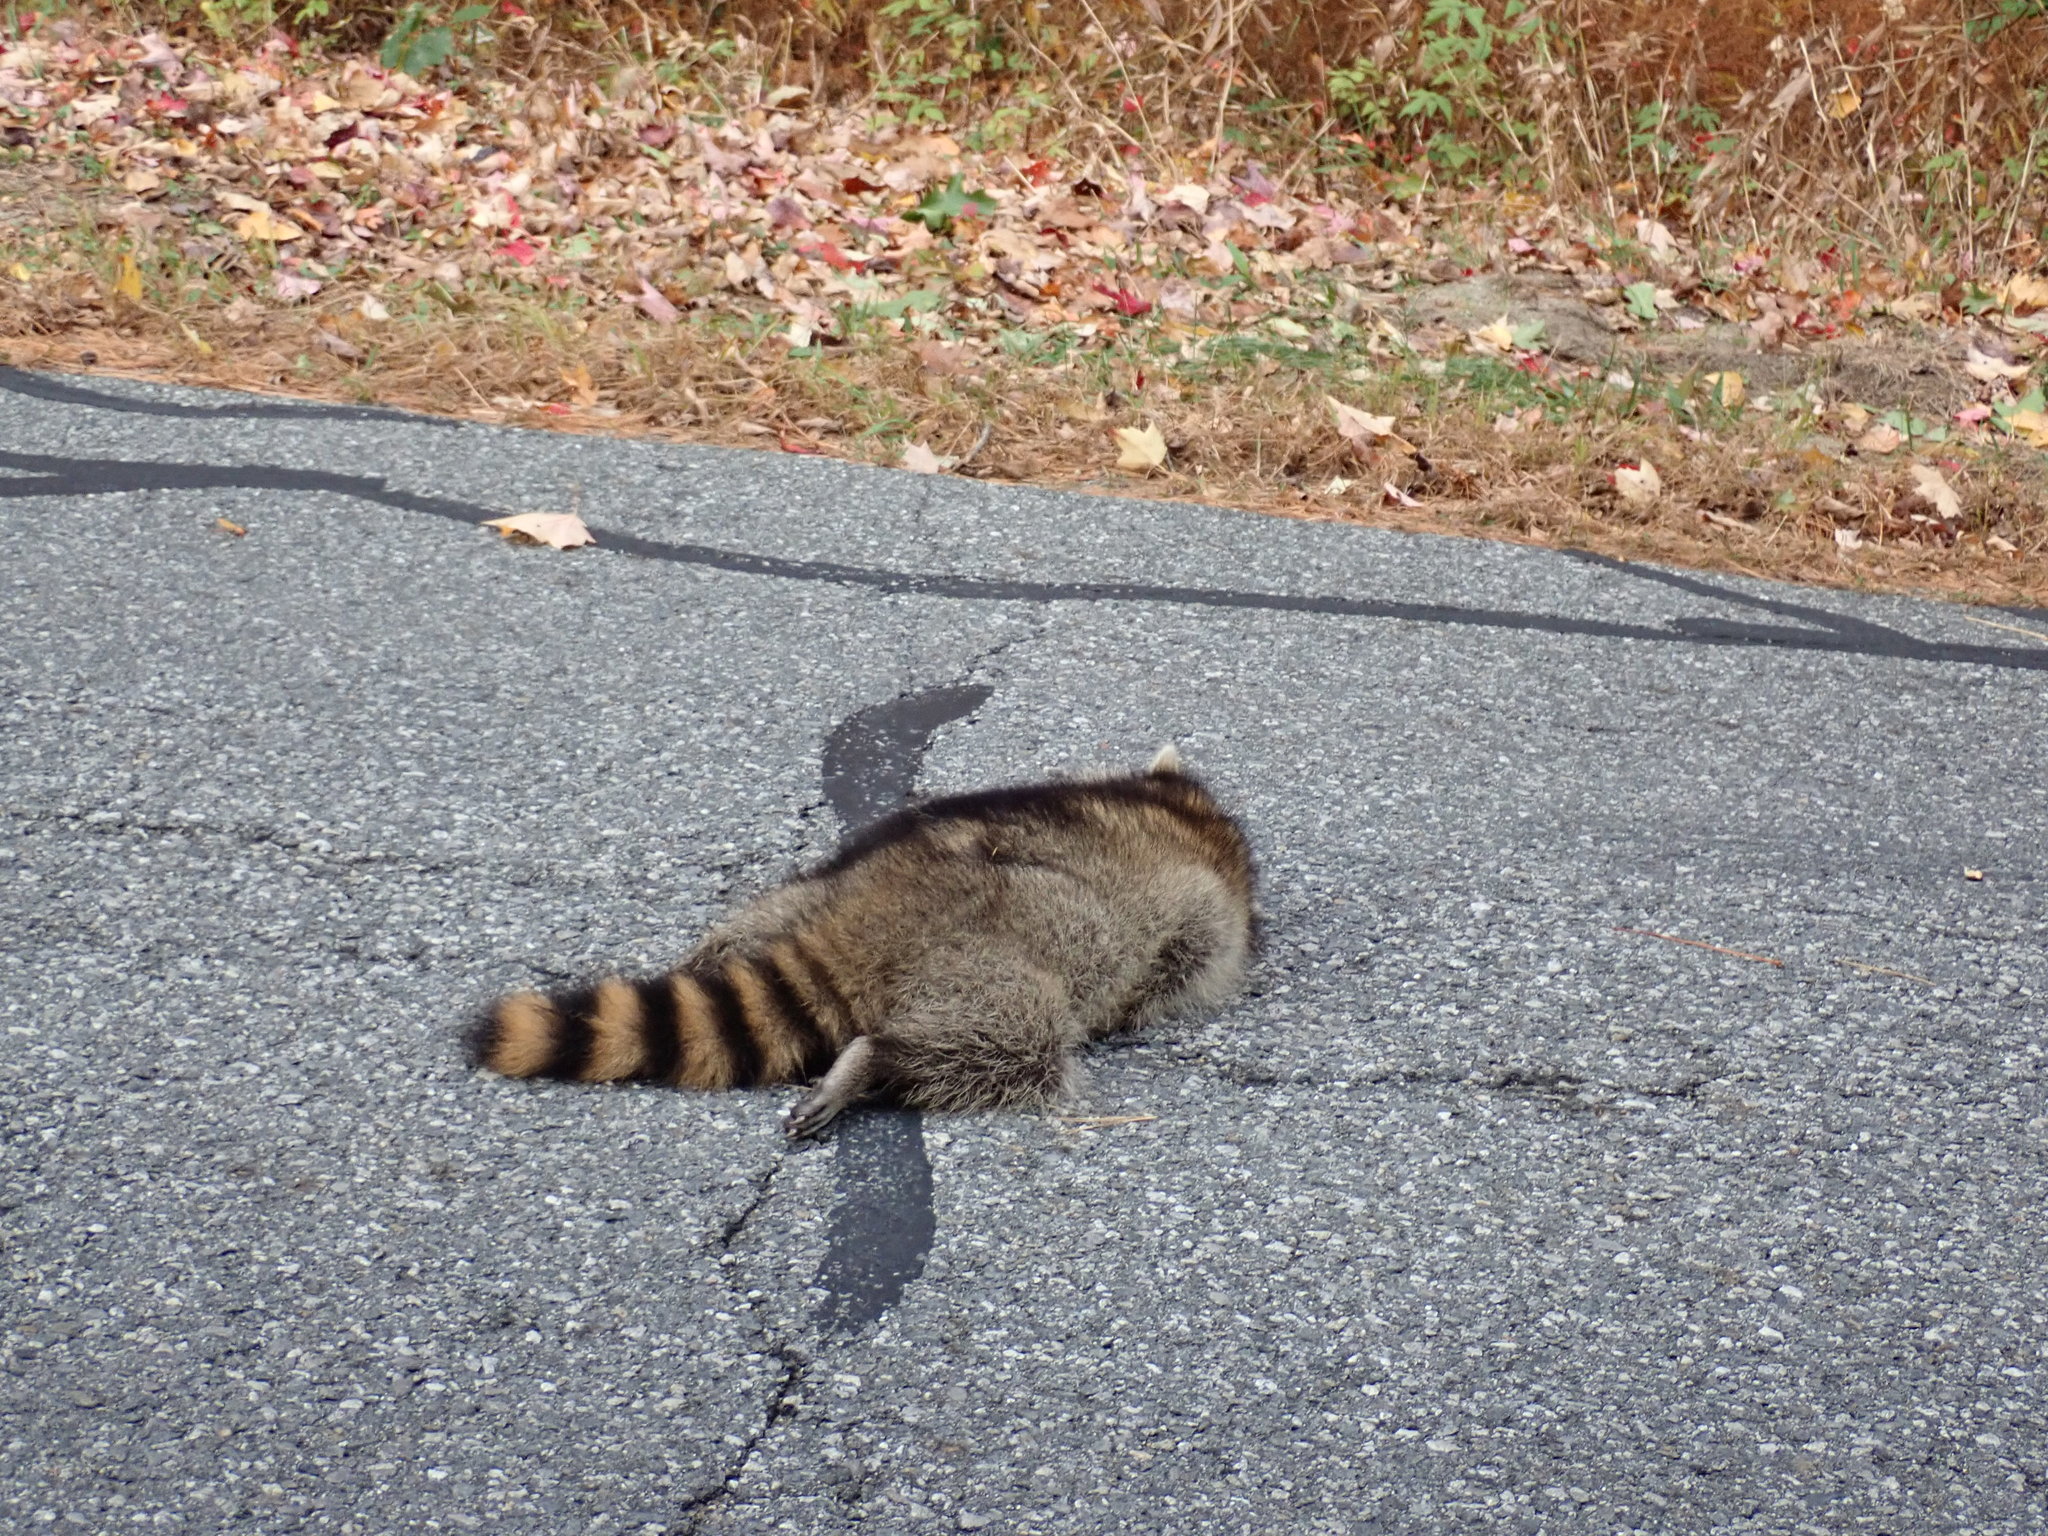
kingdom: Animalia
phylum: Chordata
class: Mammalia
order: Carnivora
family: Procyonidae
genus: Procyon
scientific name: Procyon lotor
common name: Raccoon
